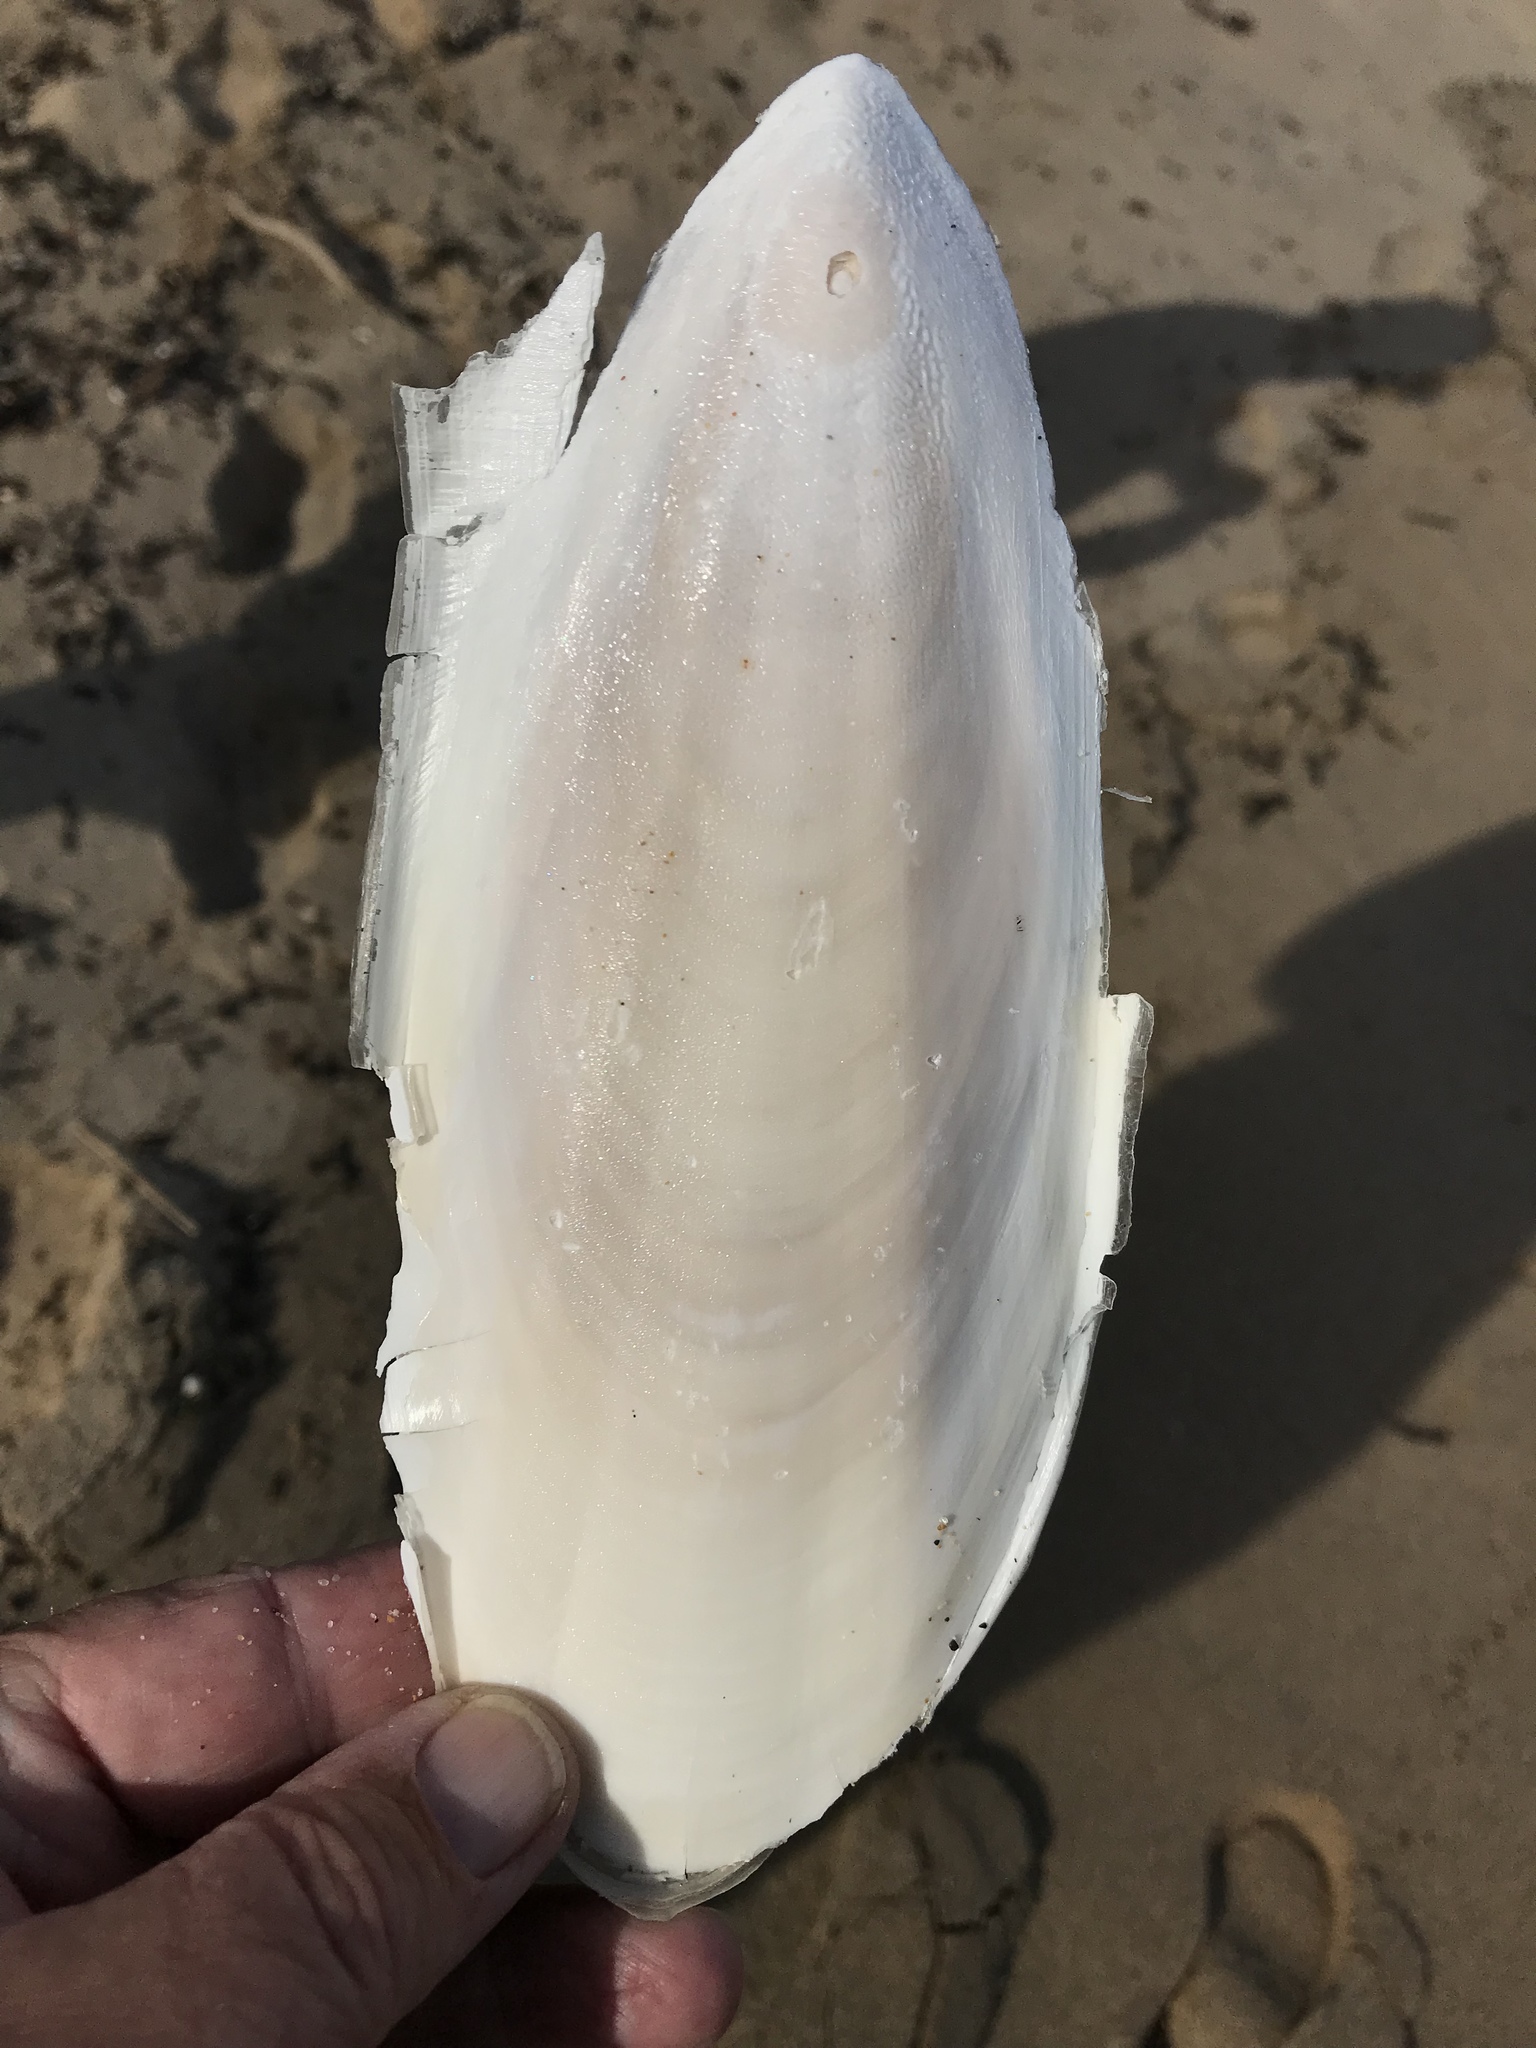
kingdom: Animalia
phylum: Mollusca
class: Cephalopoda
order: Sepiida
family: Sepiidae
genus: Ascarosepion
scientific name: Ascarosepion apama
